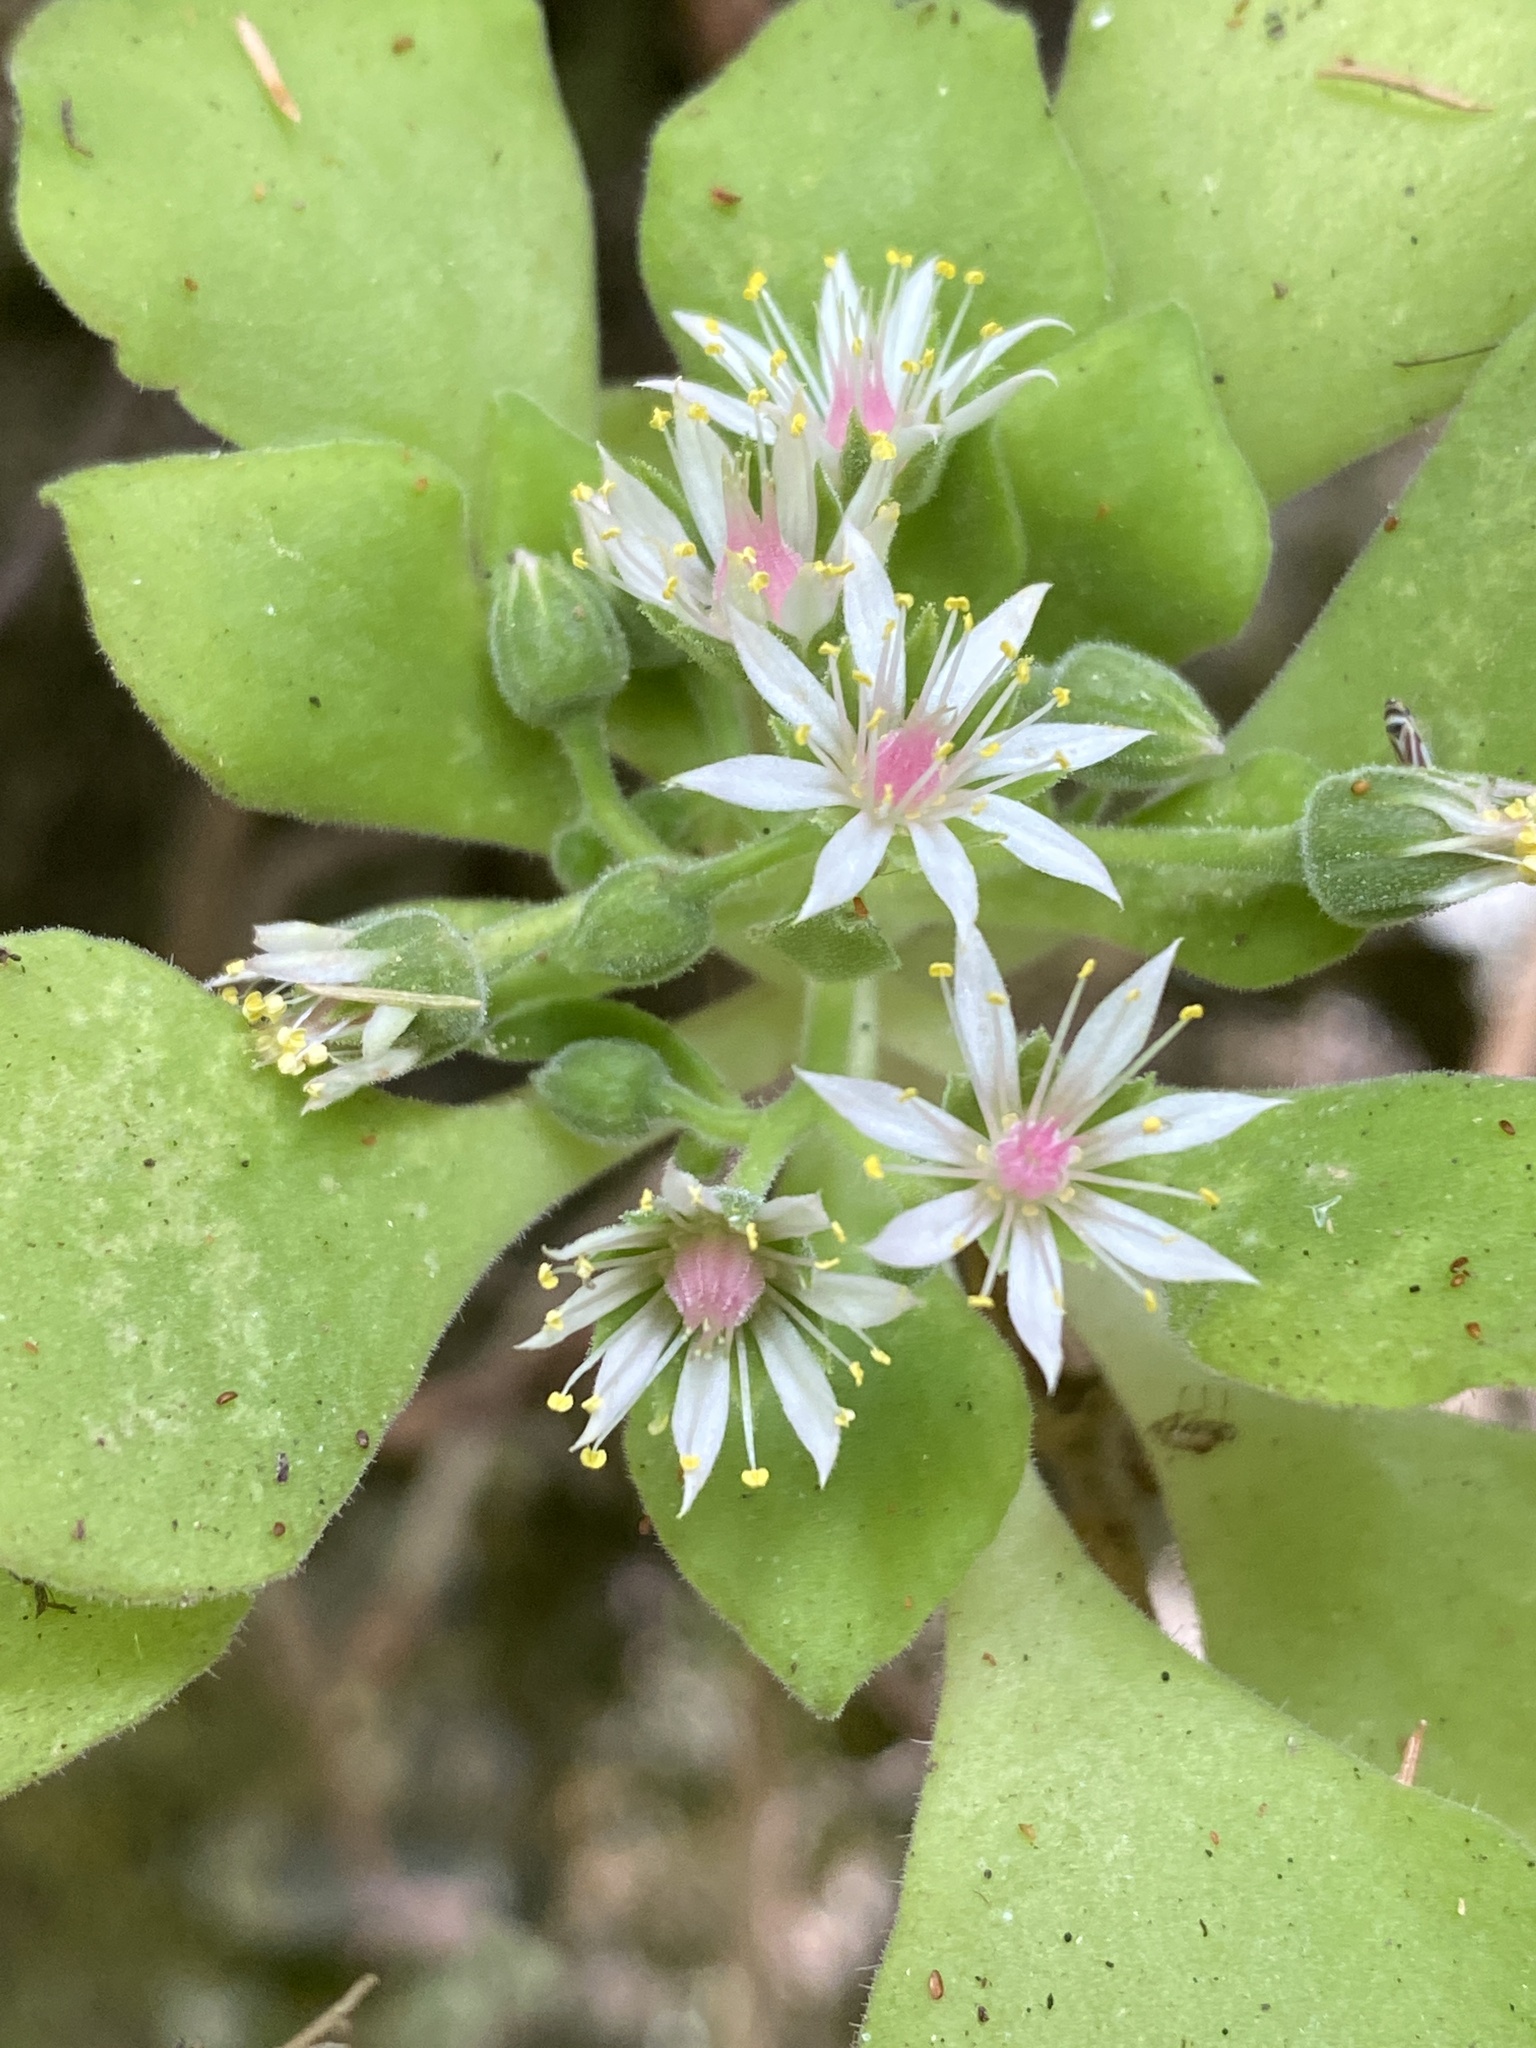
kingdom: Plantae
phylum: Tracheophyta
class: Magnoliopsida
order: Saxifragales
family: Crassulaceae
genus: Aeonium
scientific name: Aeonium goochiae
